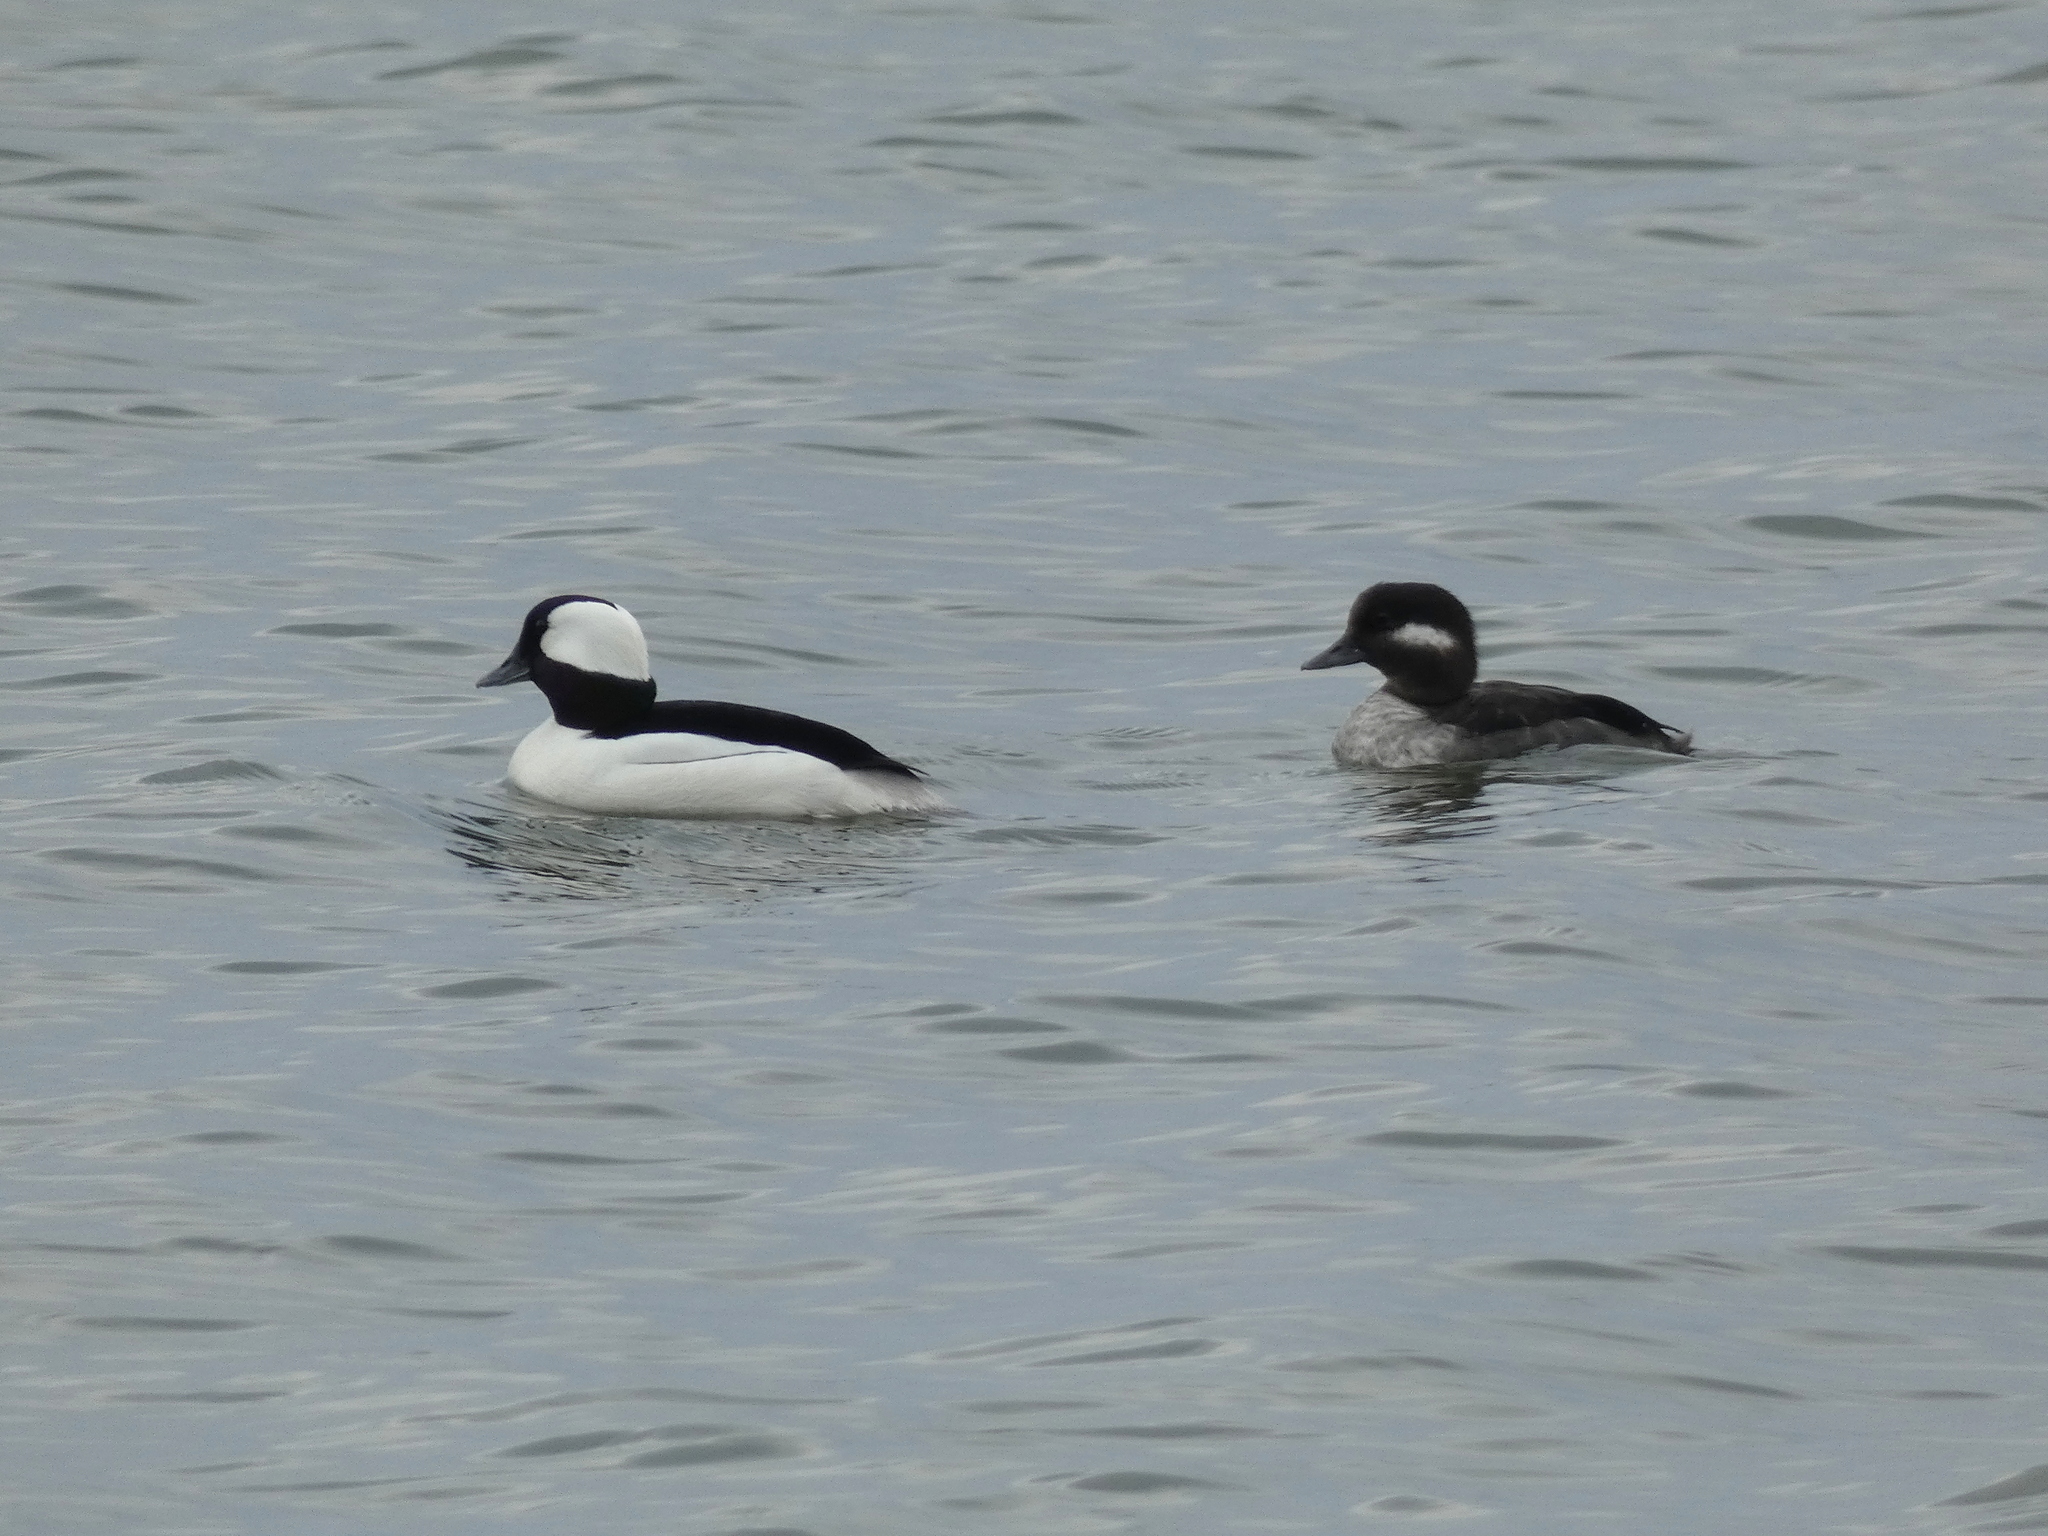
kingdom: Animalia
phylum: Chordata
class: Aves
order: Anseriformes
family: Anatidae
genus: Bucephala
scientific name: Bucephala albeola
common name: Bufflehead
